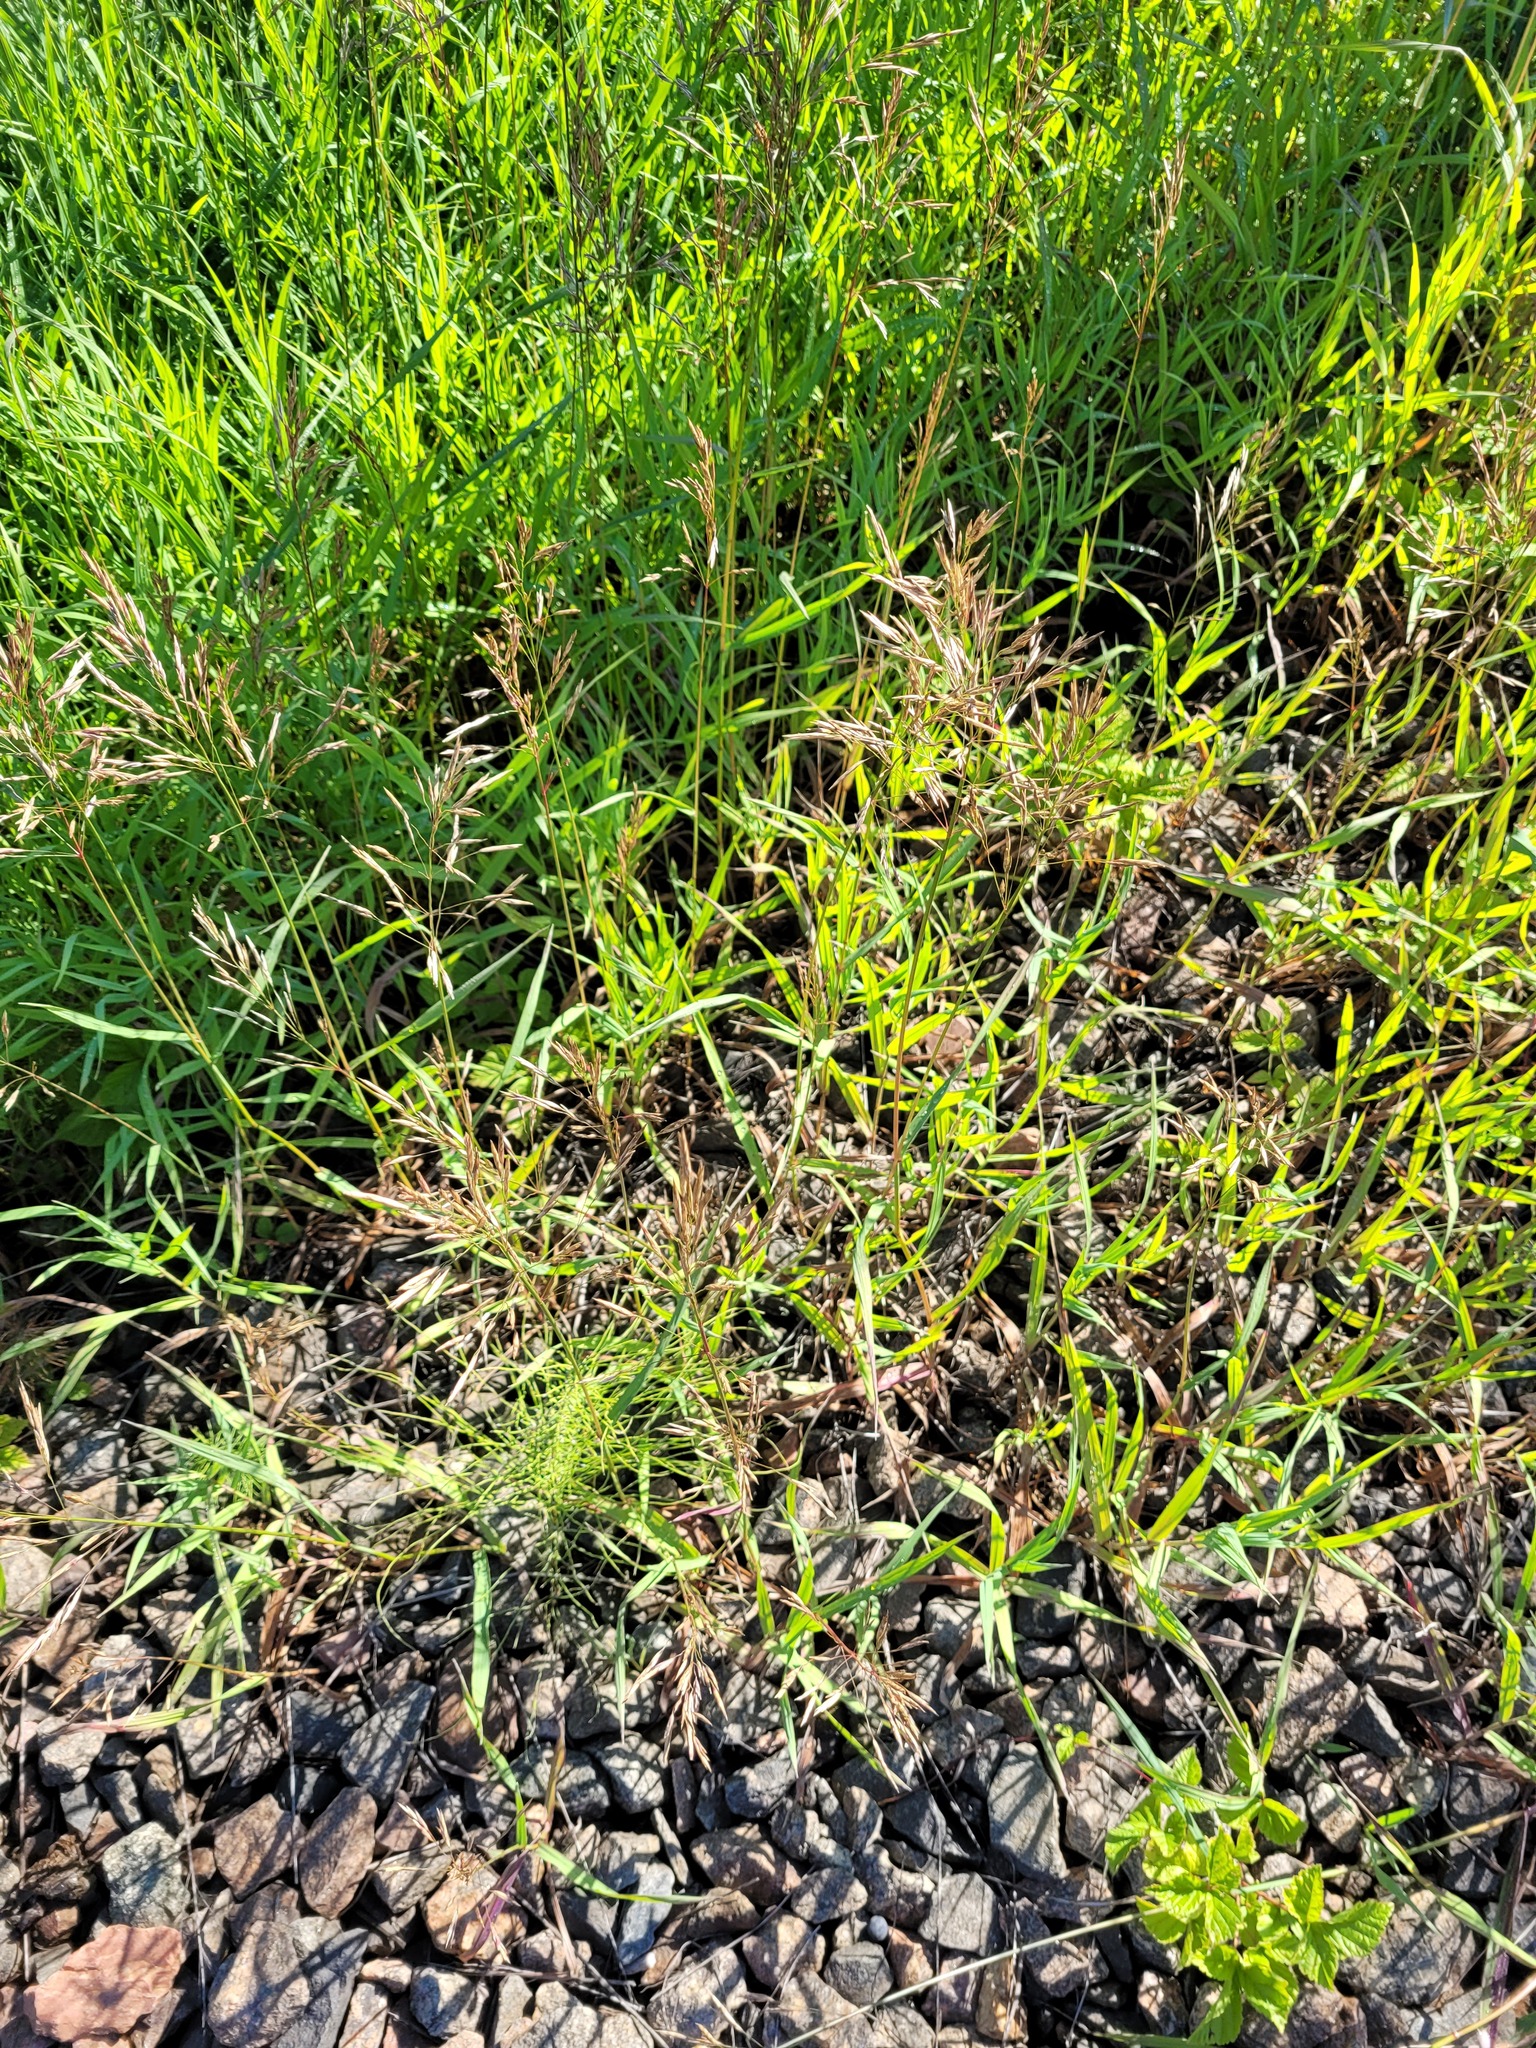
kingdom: Plantae
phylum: Tracheophyta
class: Liliopsida
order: Poales
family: Poaceae
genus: Bromus
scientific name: Bromus inermis
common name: Smooth brome
